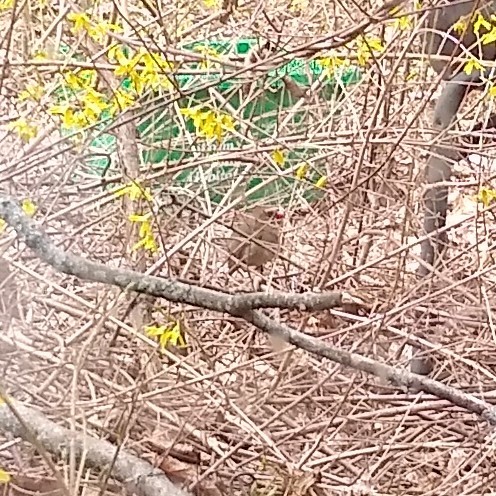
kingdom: Animalia
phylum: Chordata
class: Aves
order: Passeriformes
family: Cardinalidae
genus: Cardinalis
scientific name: Cardinalis cardinalis
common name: Northern cardinal
